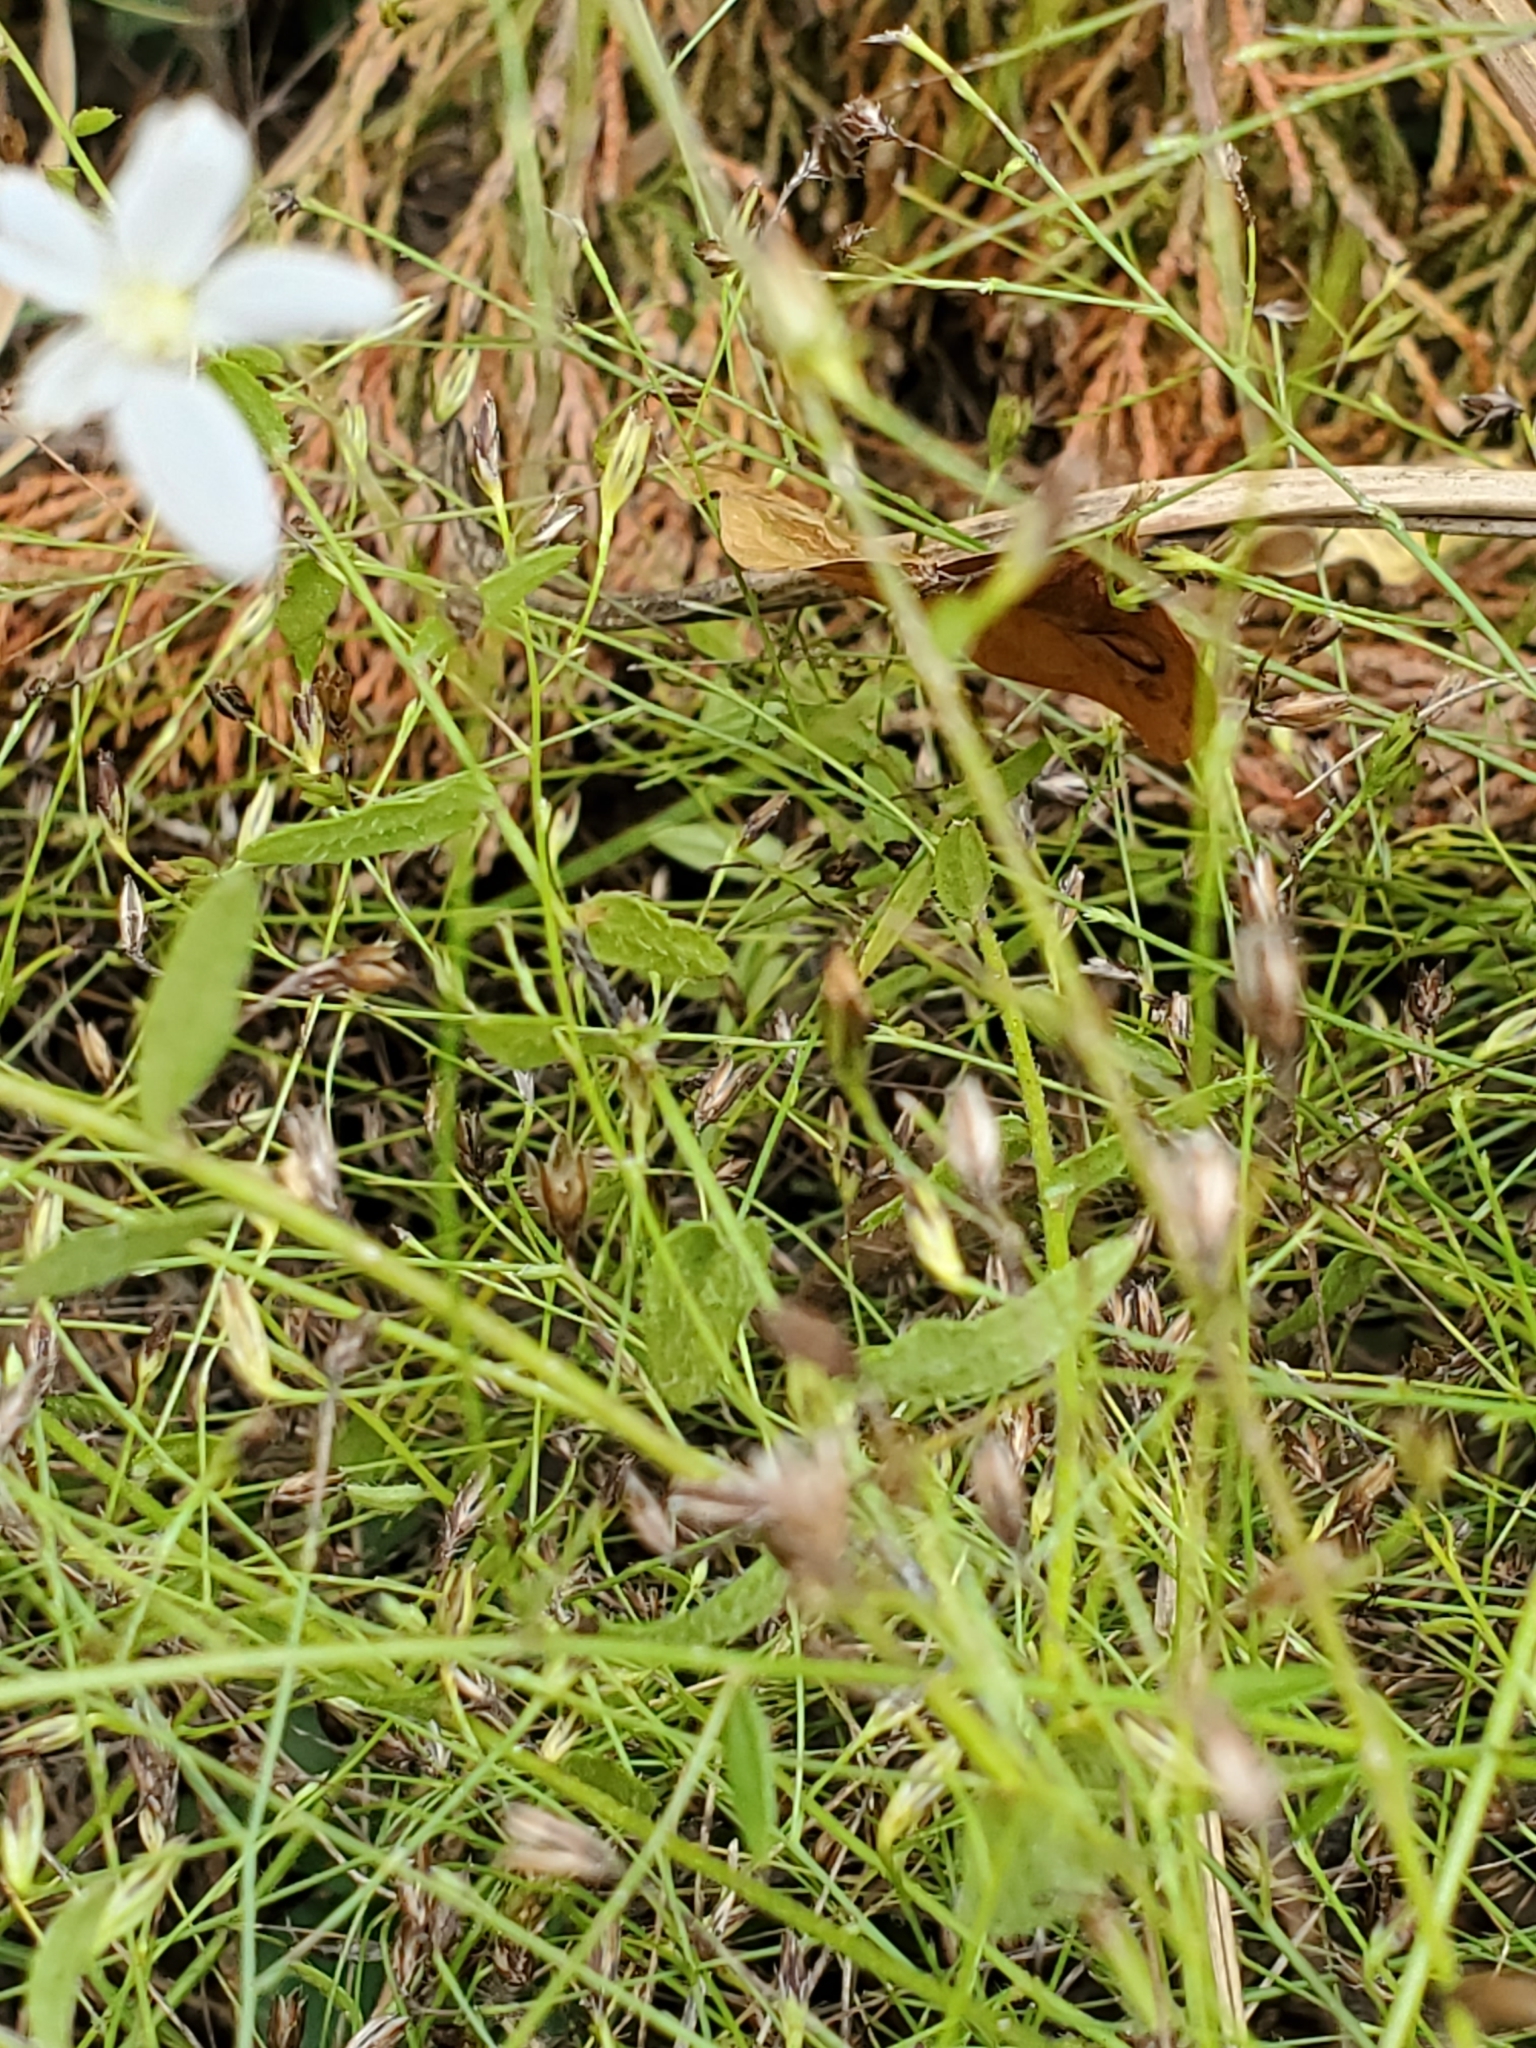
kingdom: Plantae
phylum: Tracheophyta
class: Magnoliopsida
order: Asterales
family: Asteraceae
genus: Chaetopappa
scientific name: Chaetopappa effusa
